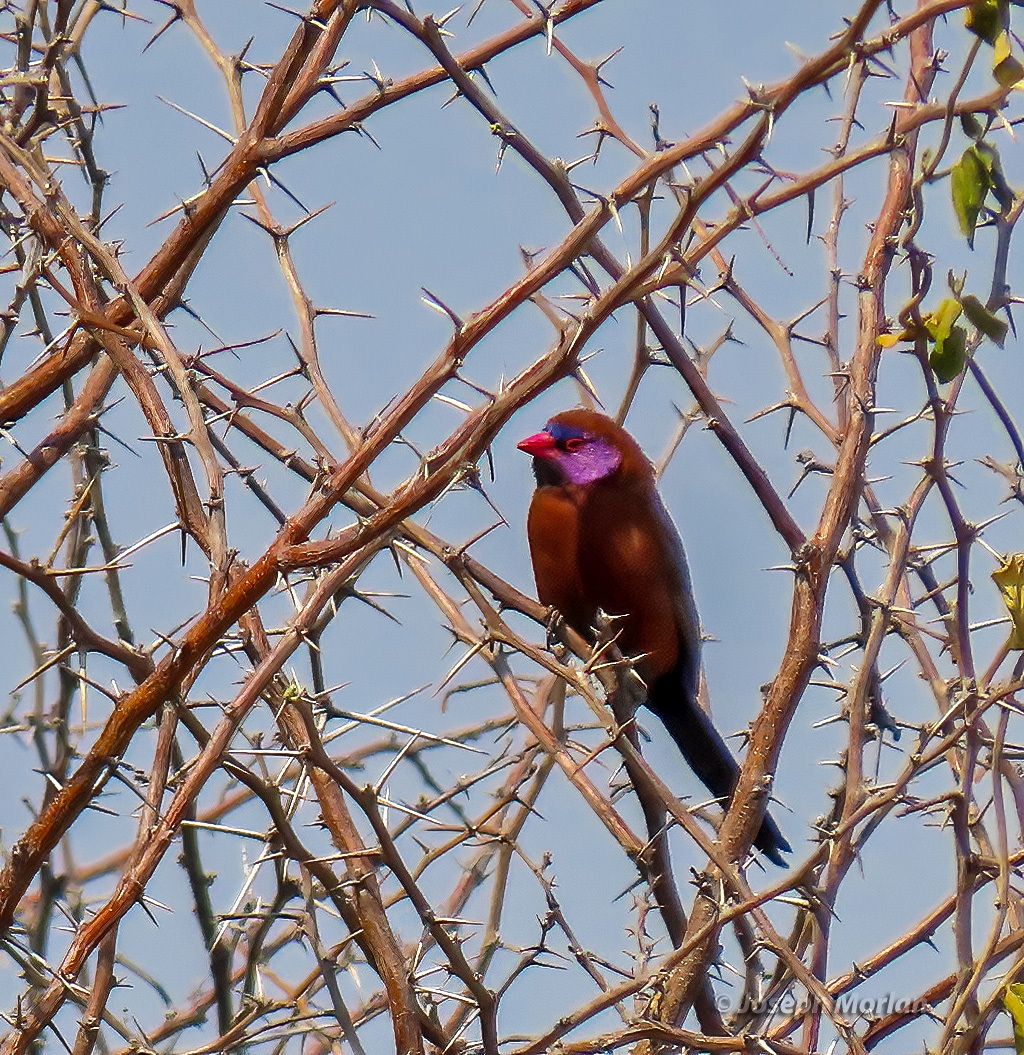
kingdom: Animalia
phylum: Chordata
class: Aves
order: Passeriformes
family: Estrildidae
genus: Uraeginthus
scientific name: Uraeginthus granatinus
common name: Violet-eared waxbill
